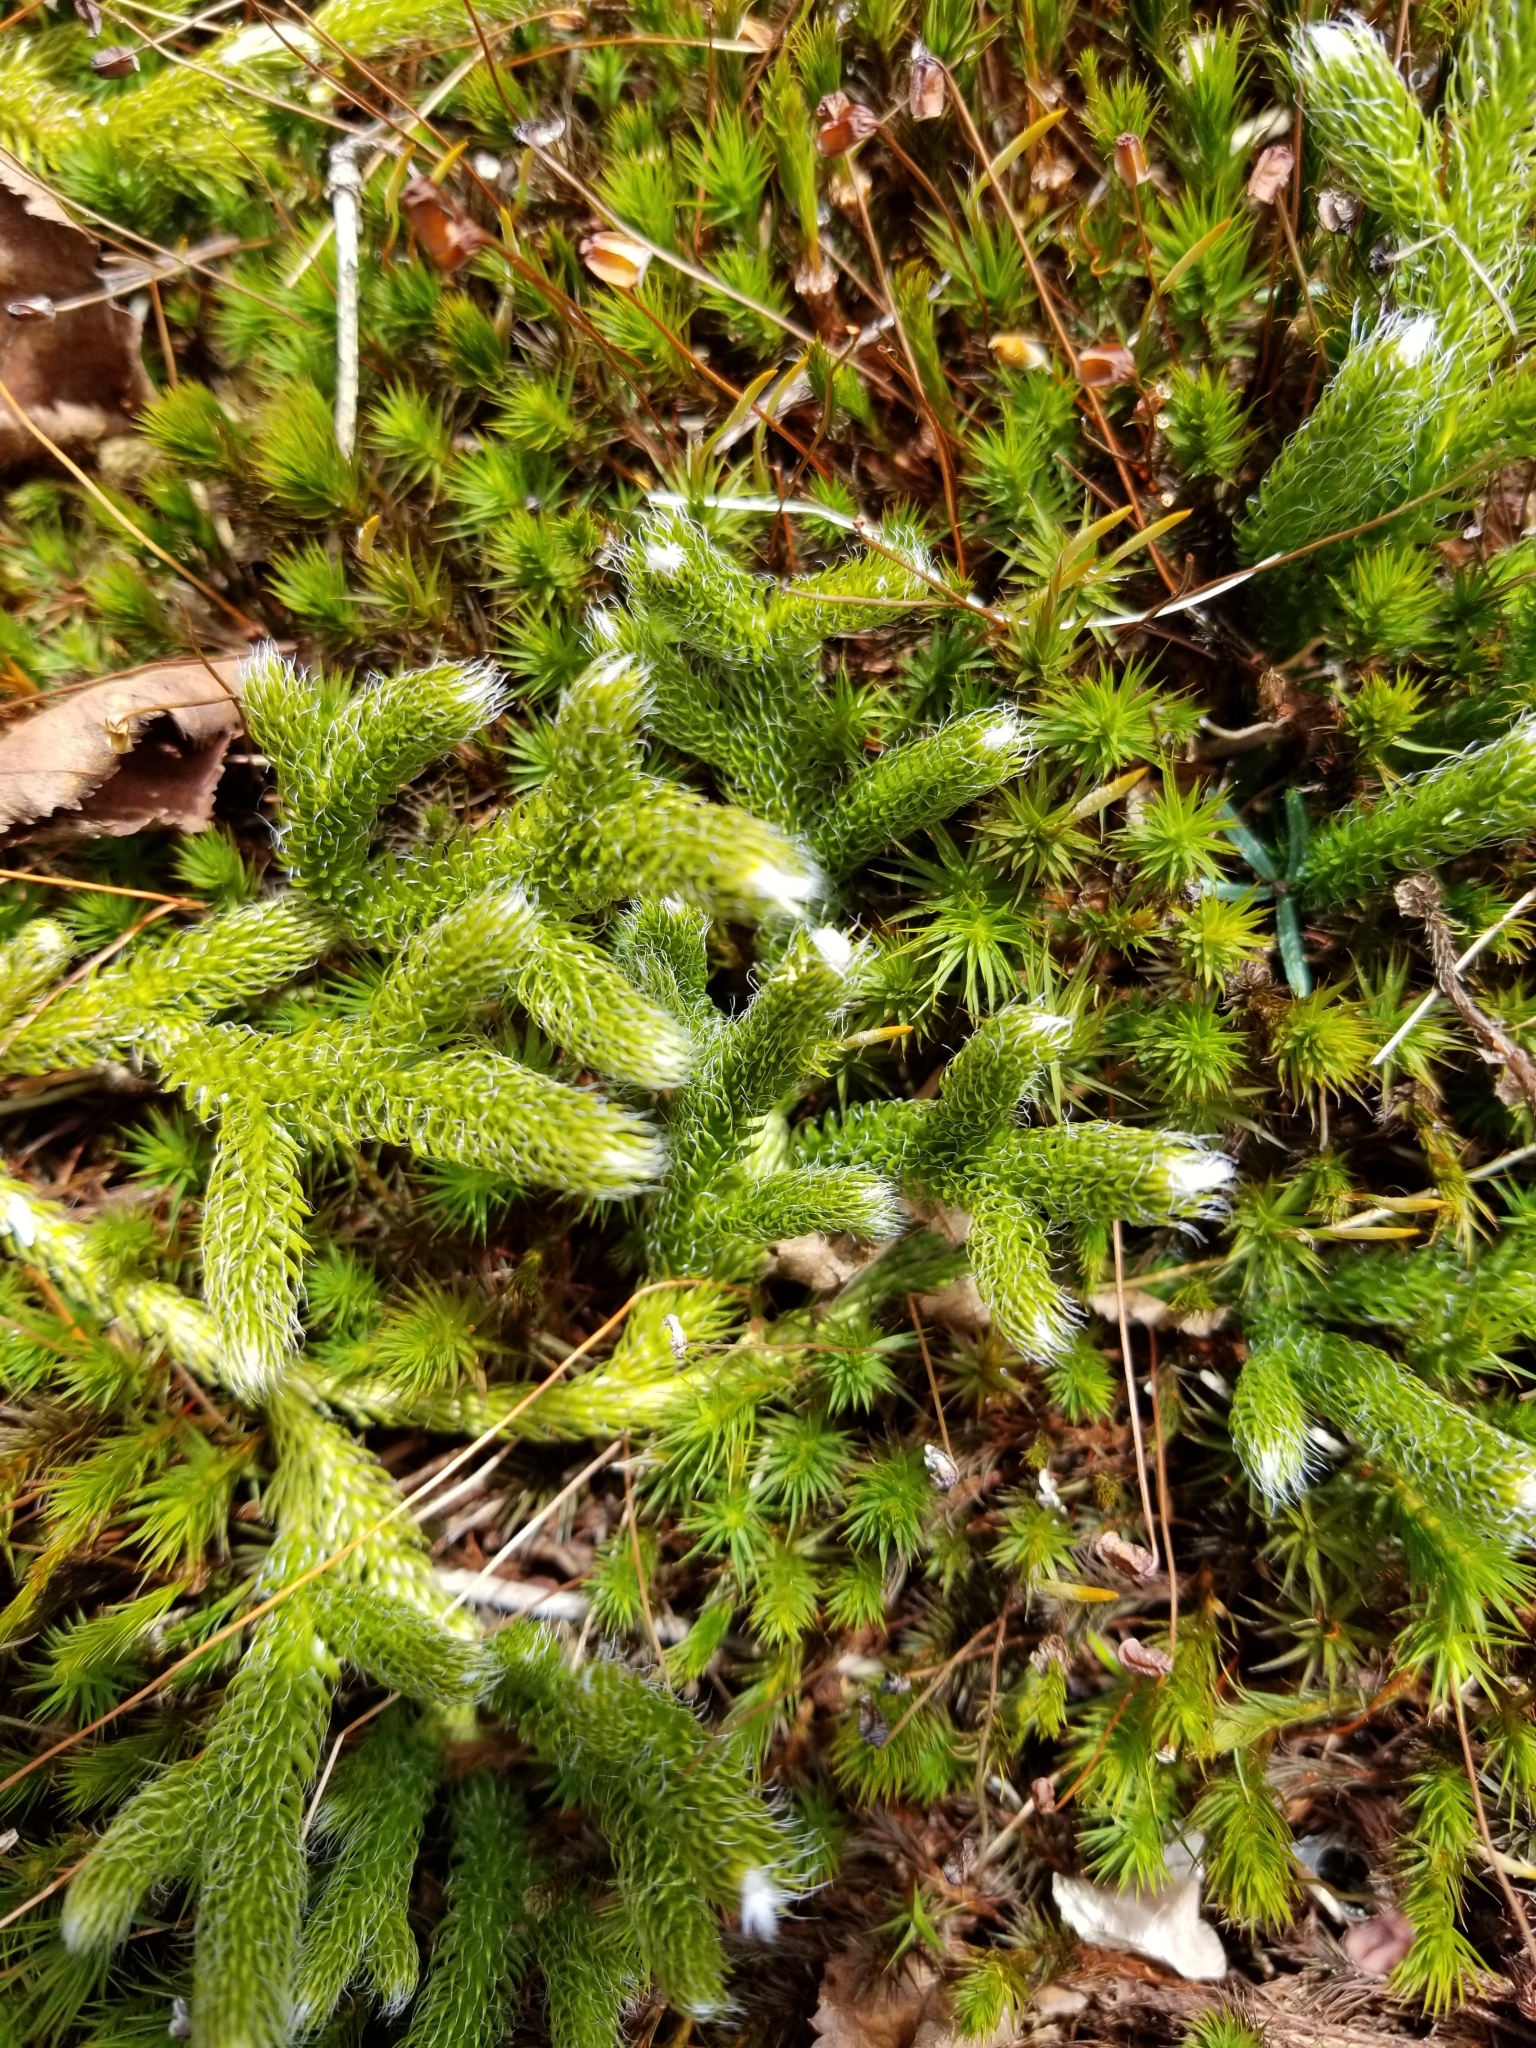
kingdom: Plantae
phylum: Tracheophyta
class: Lycopodiopsida
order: Lycopodiales
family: Lycopodiaceae
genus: Lycopodium
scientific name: Lycopodium clavatum
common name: Stag's-horn clubmoss
